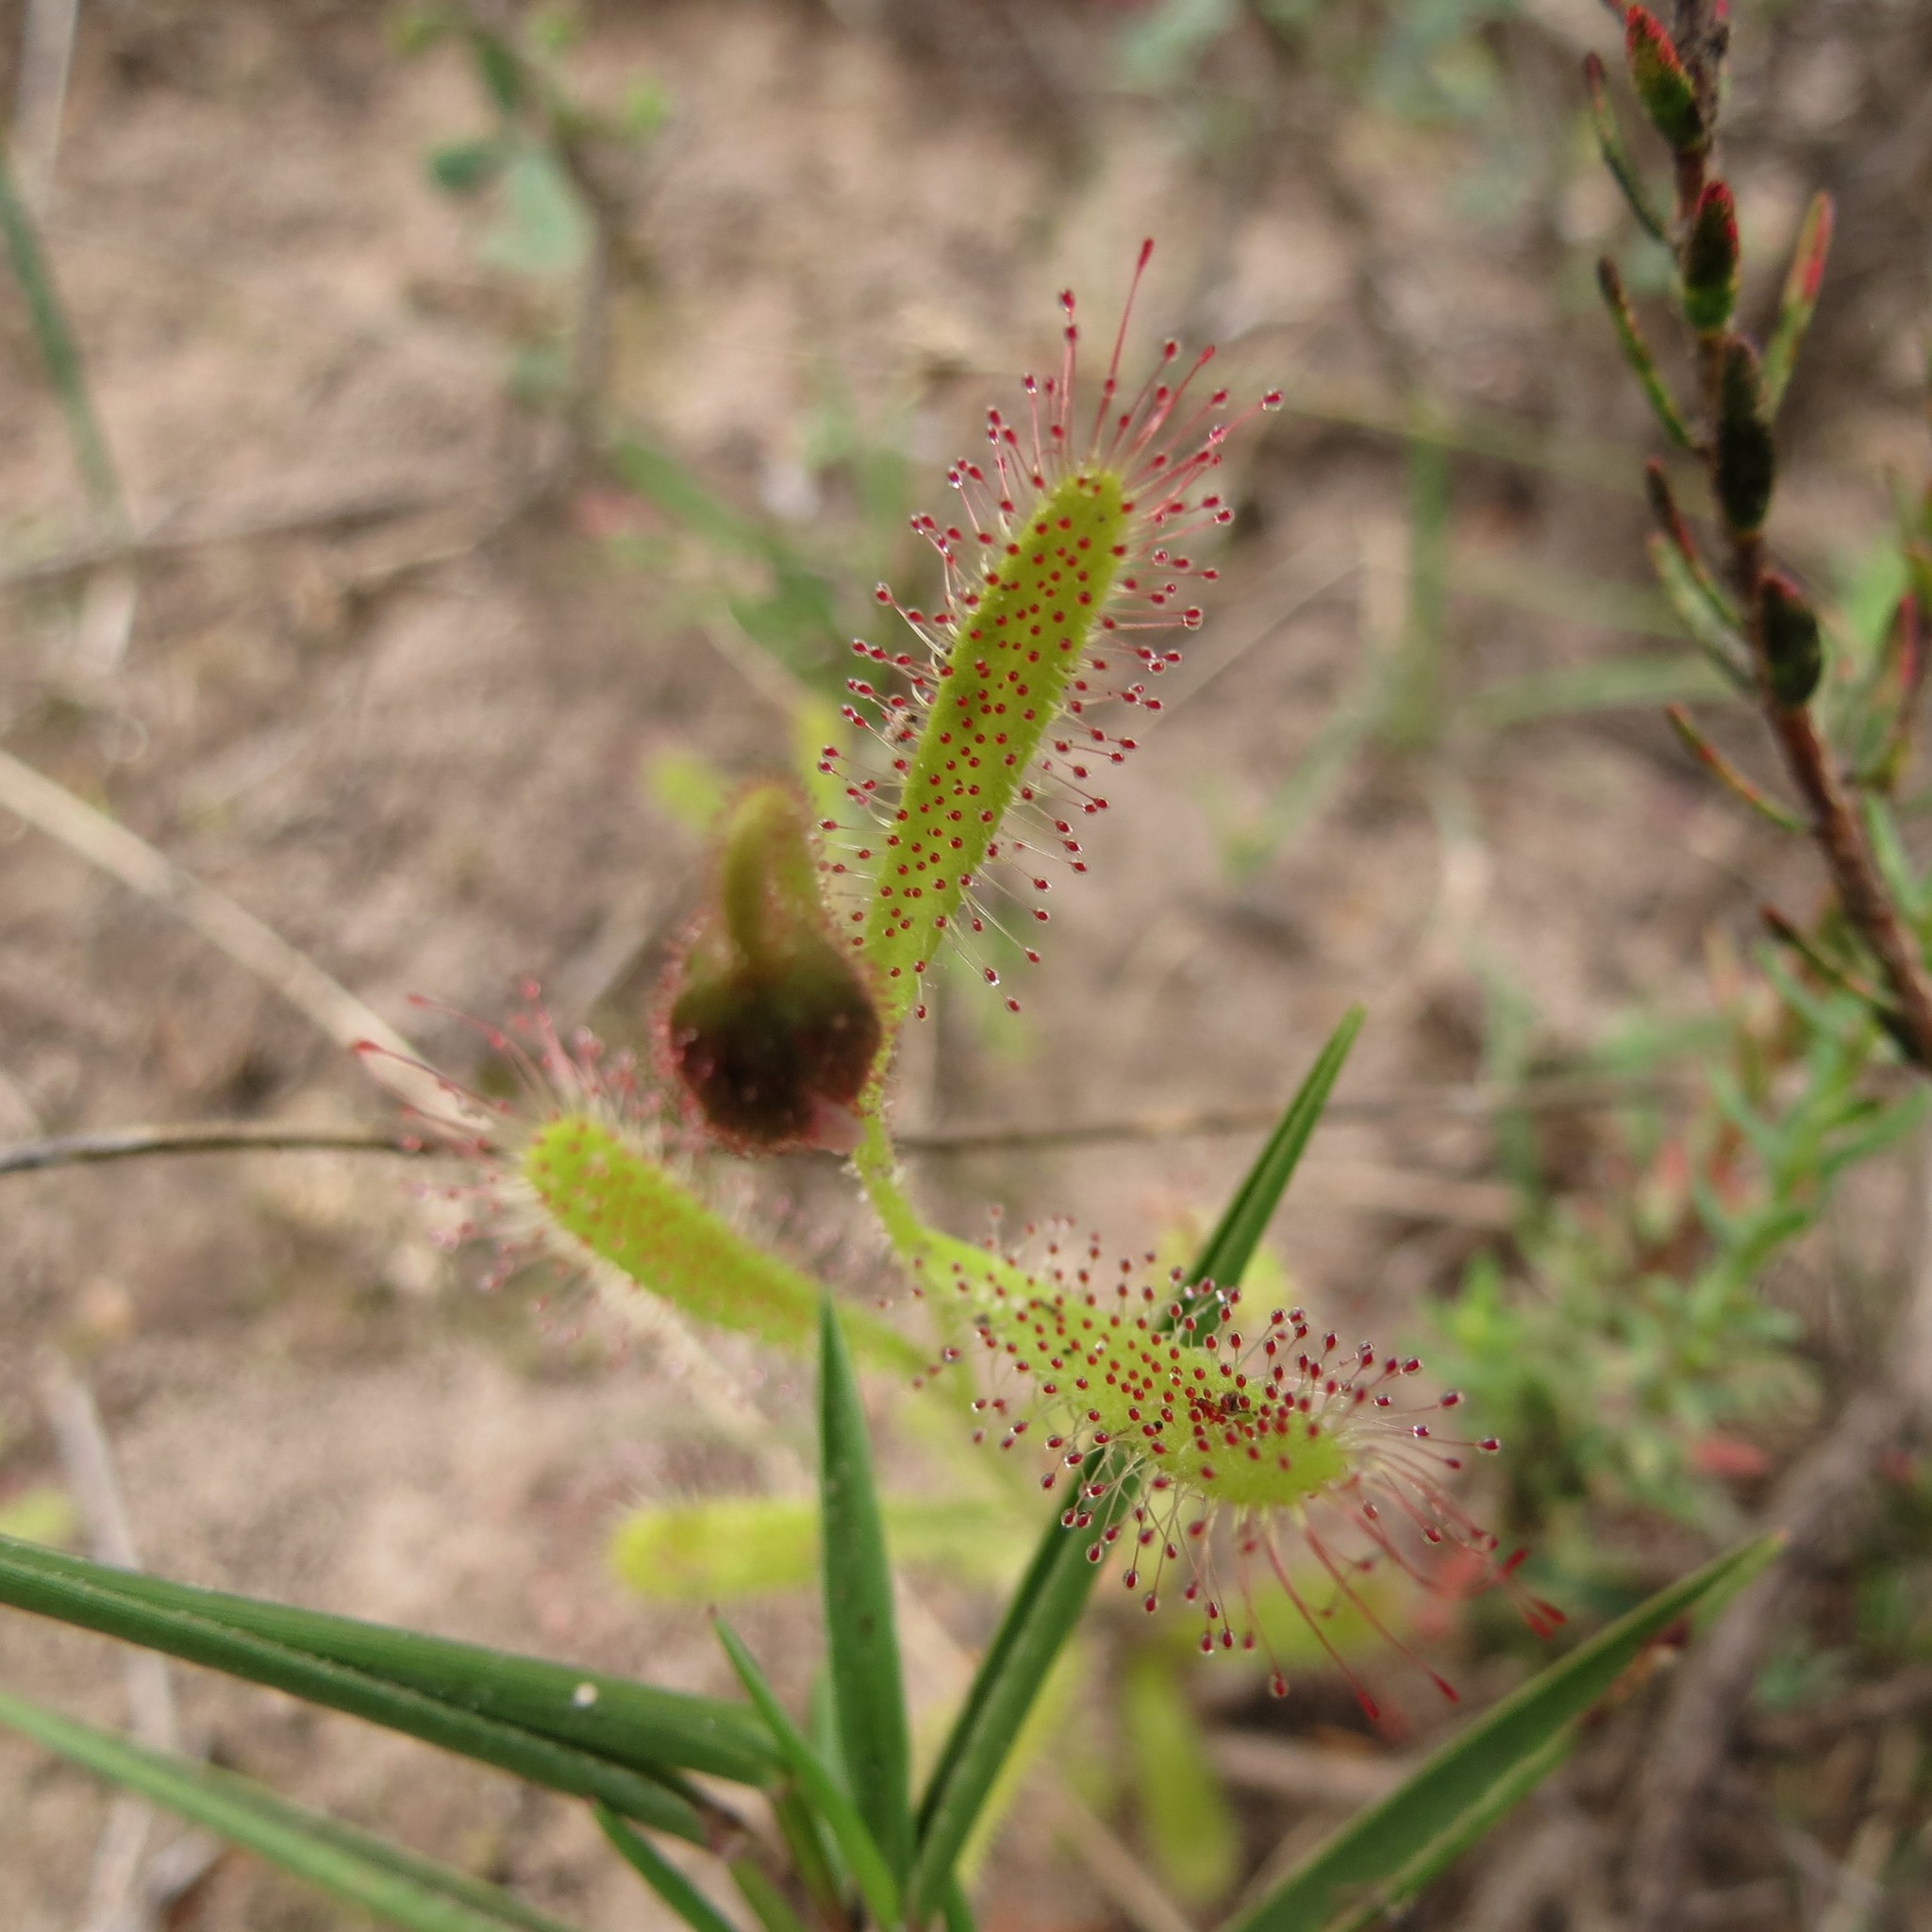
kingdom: Plantae
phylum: Tracheophyta
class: Magnoliopsida
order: Caryophyllales
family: Droseraceae
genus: Drosera
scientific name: Drosera cistiflora
